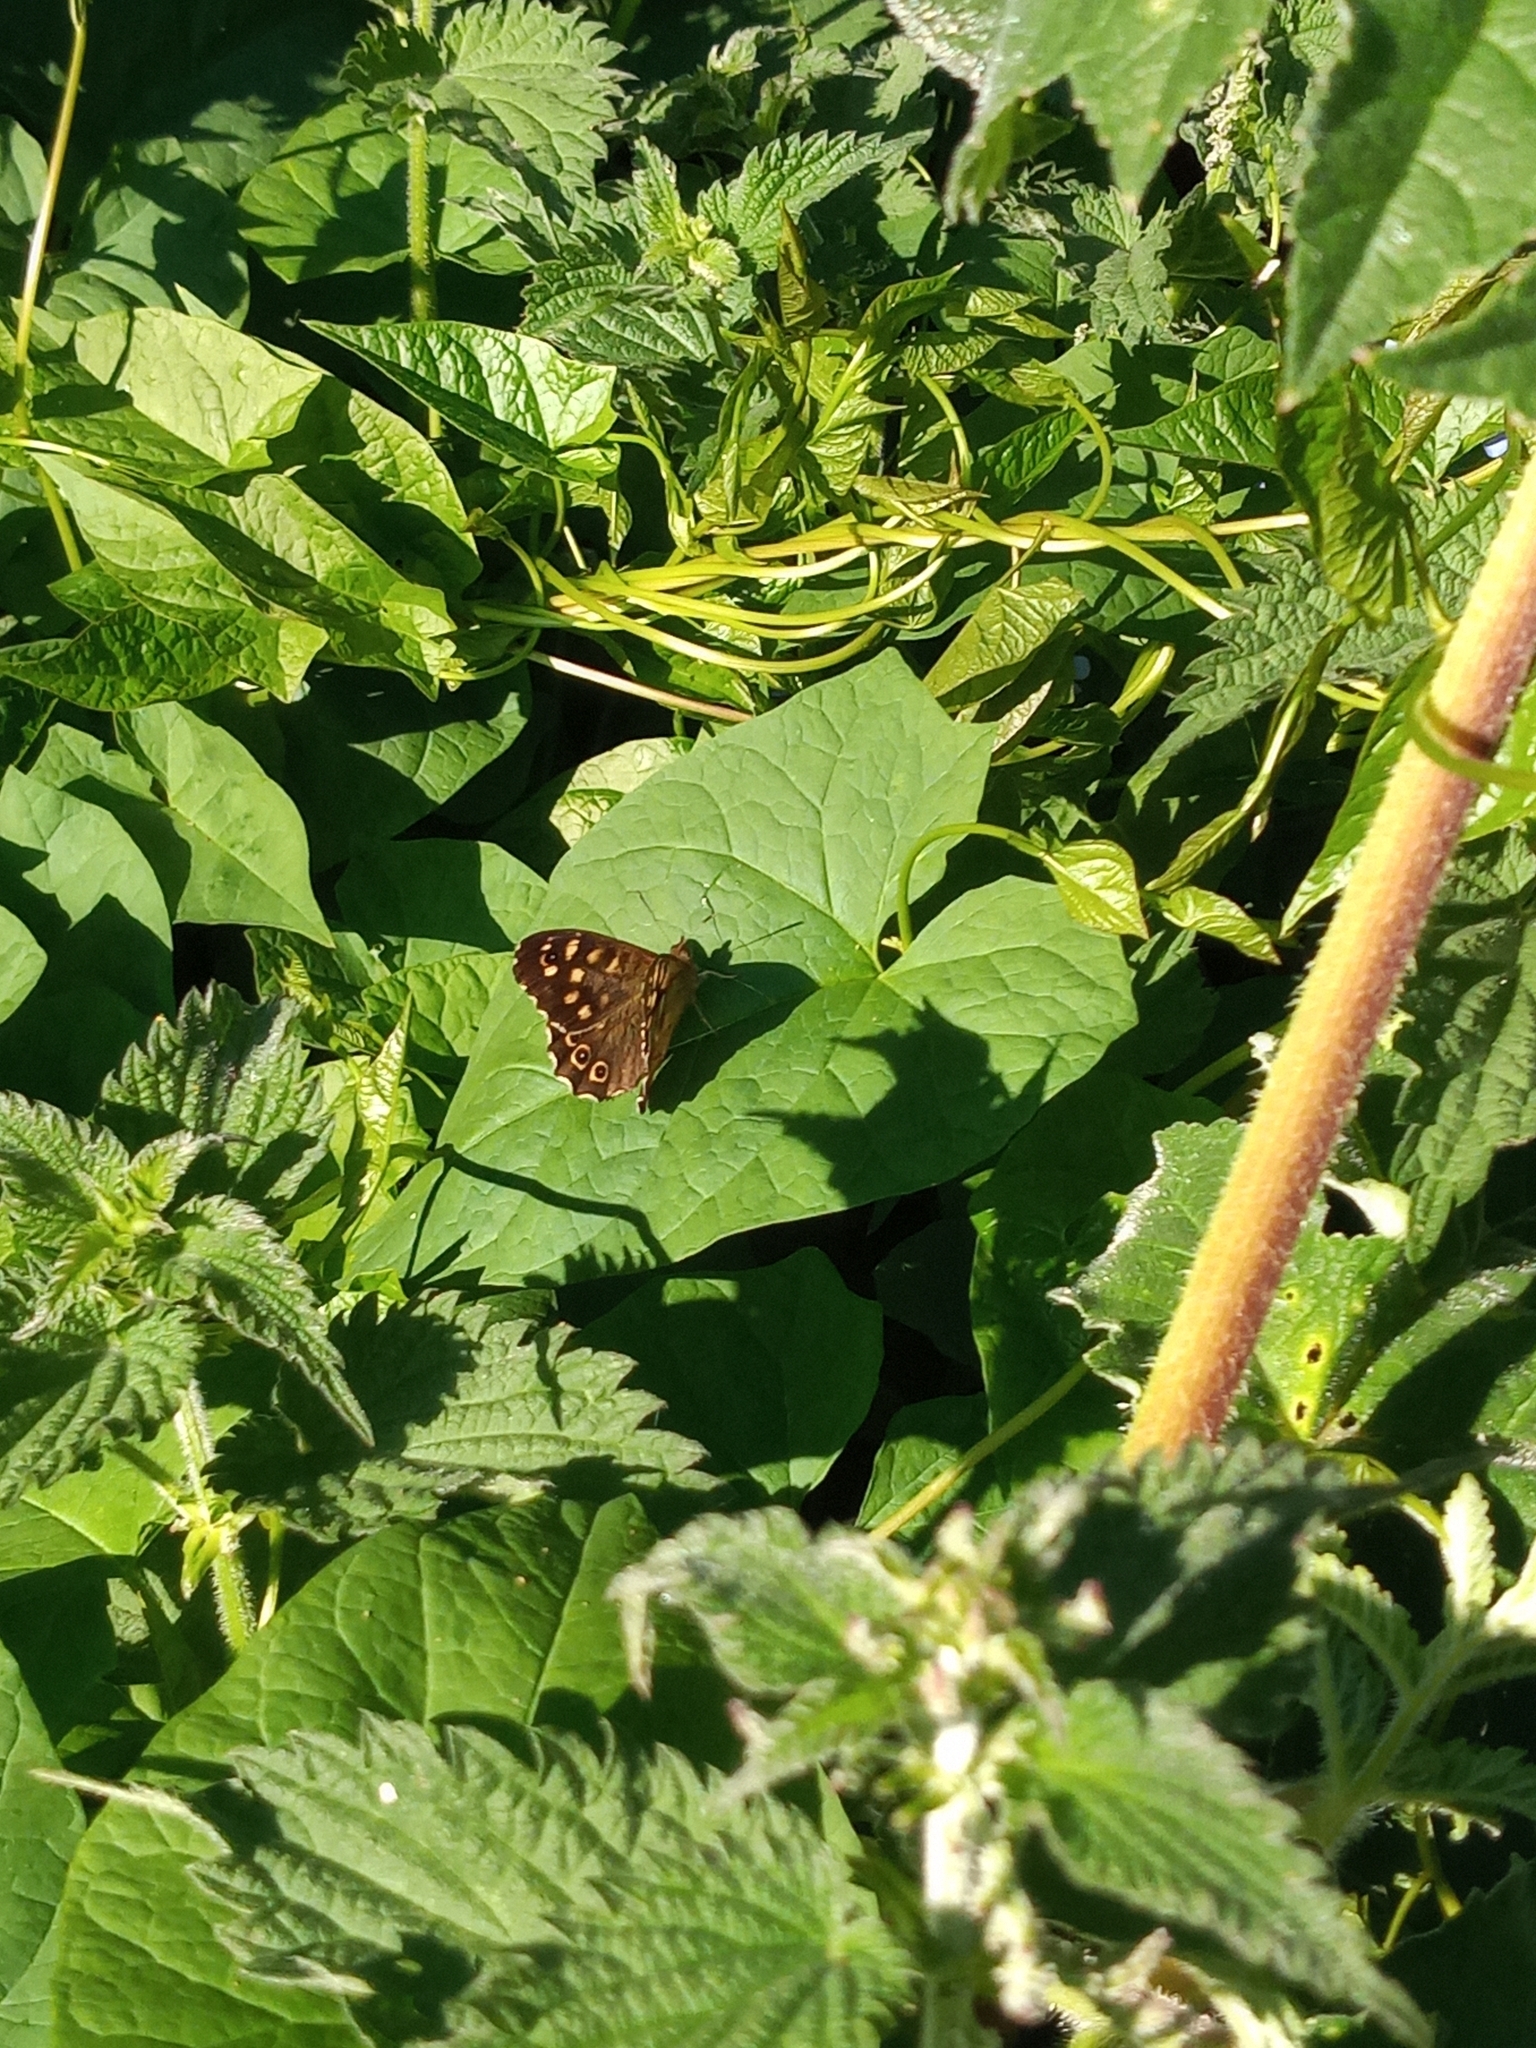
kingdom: Animalia
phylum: Arthropoda
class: Insecta
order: Lepidoptera
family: Nymphalidae
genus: Pararge
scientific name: Pararge aegeria
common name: Speckled wood
